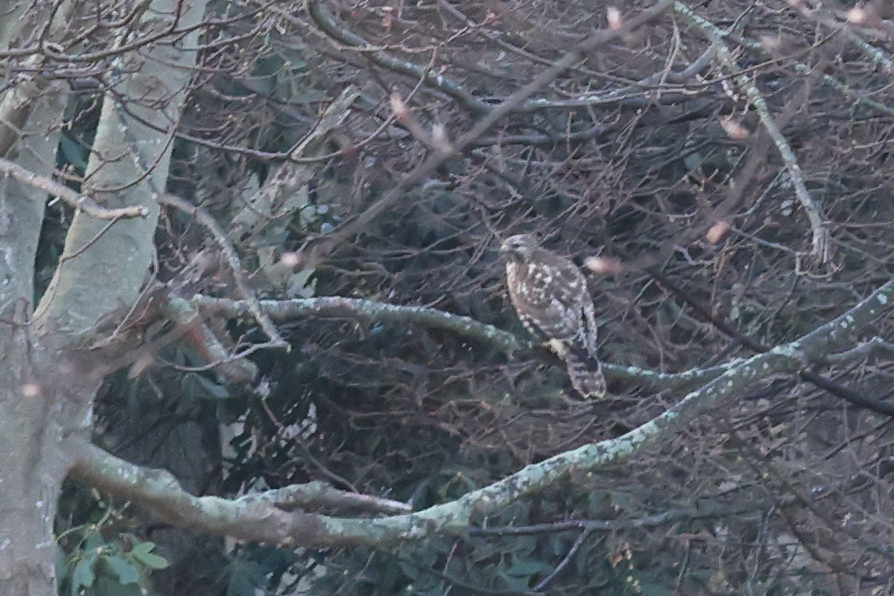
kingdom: Animalia
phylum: Chordata
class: Aves
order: Accipitriformes
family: Accipitridae
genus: Buteo
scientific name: Buteo lineatus
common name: Red-shouldered hawk
